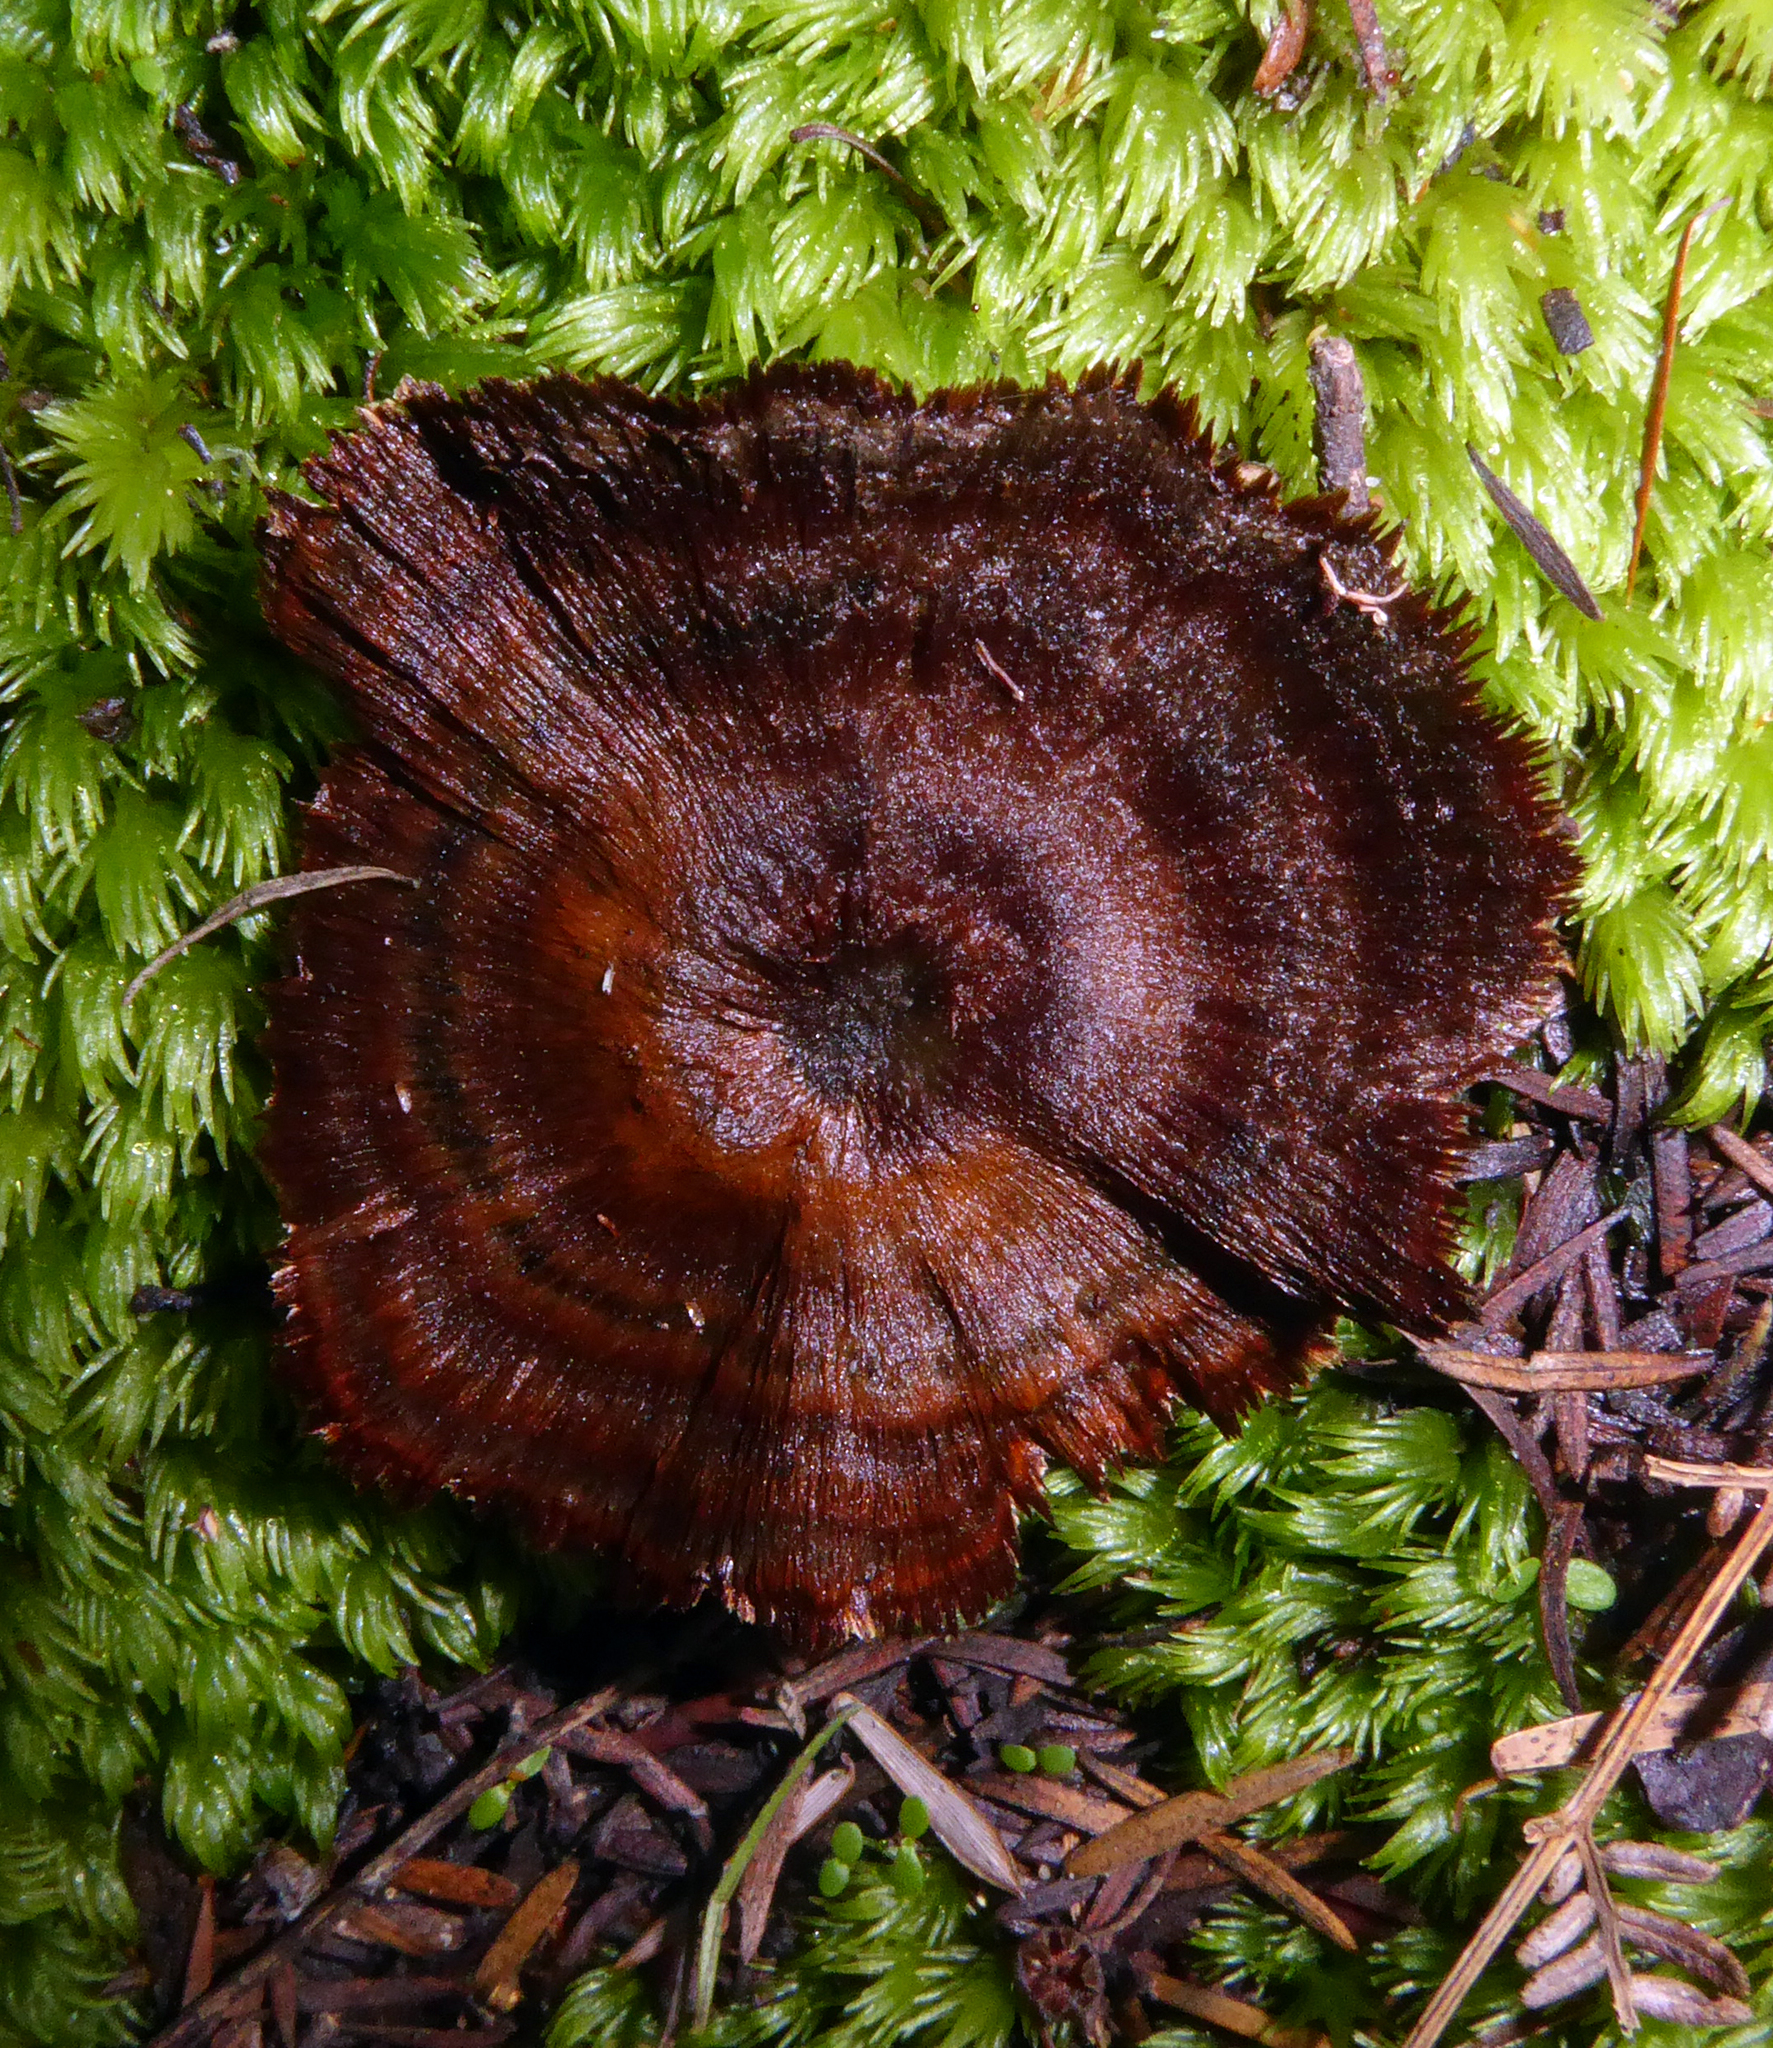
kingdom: Fungi
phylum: Basidiomycota
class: Agaricomycetes
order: Hymenochaetales
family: Hymenochaetaceae
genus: Coltricia
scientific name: Coltricia cinnamomea
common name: Shiny cinnamon polypore
